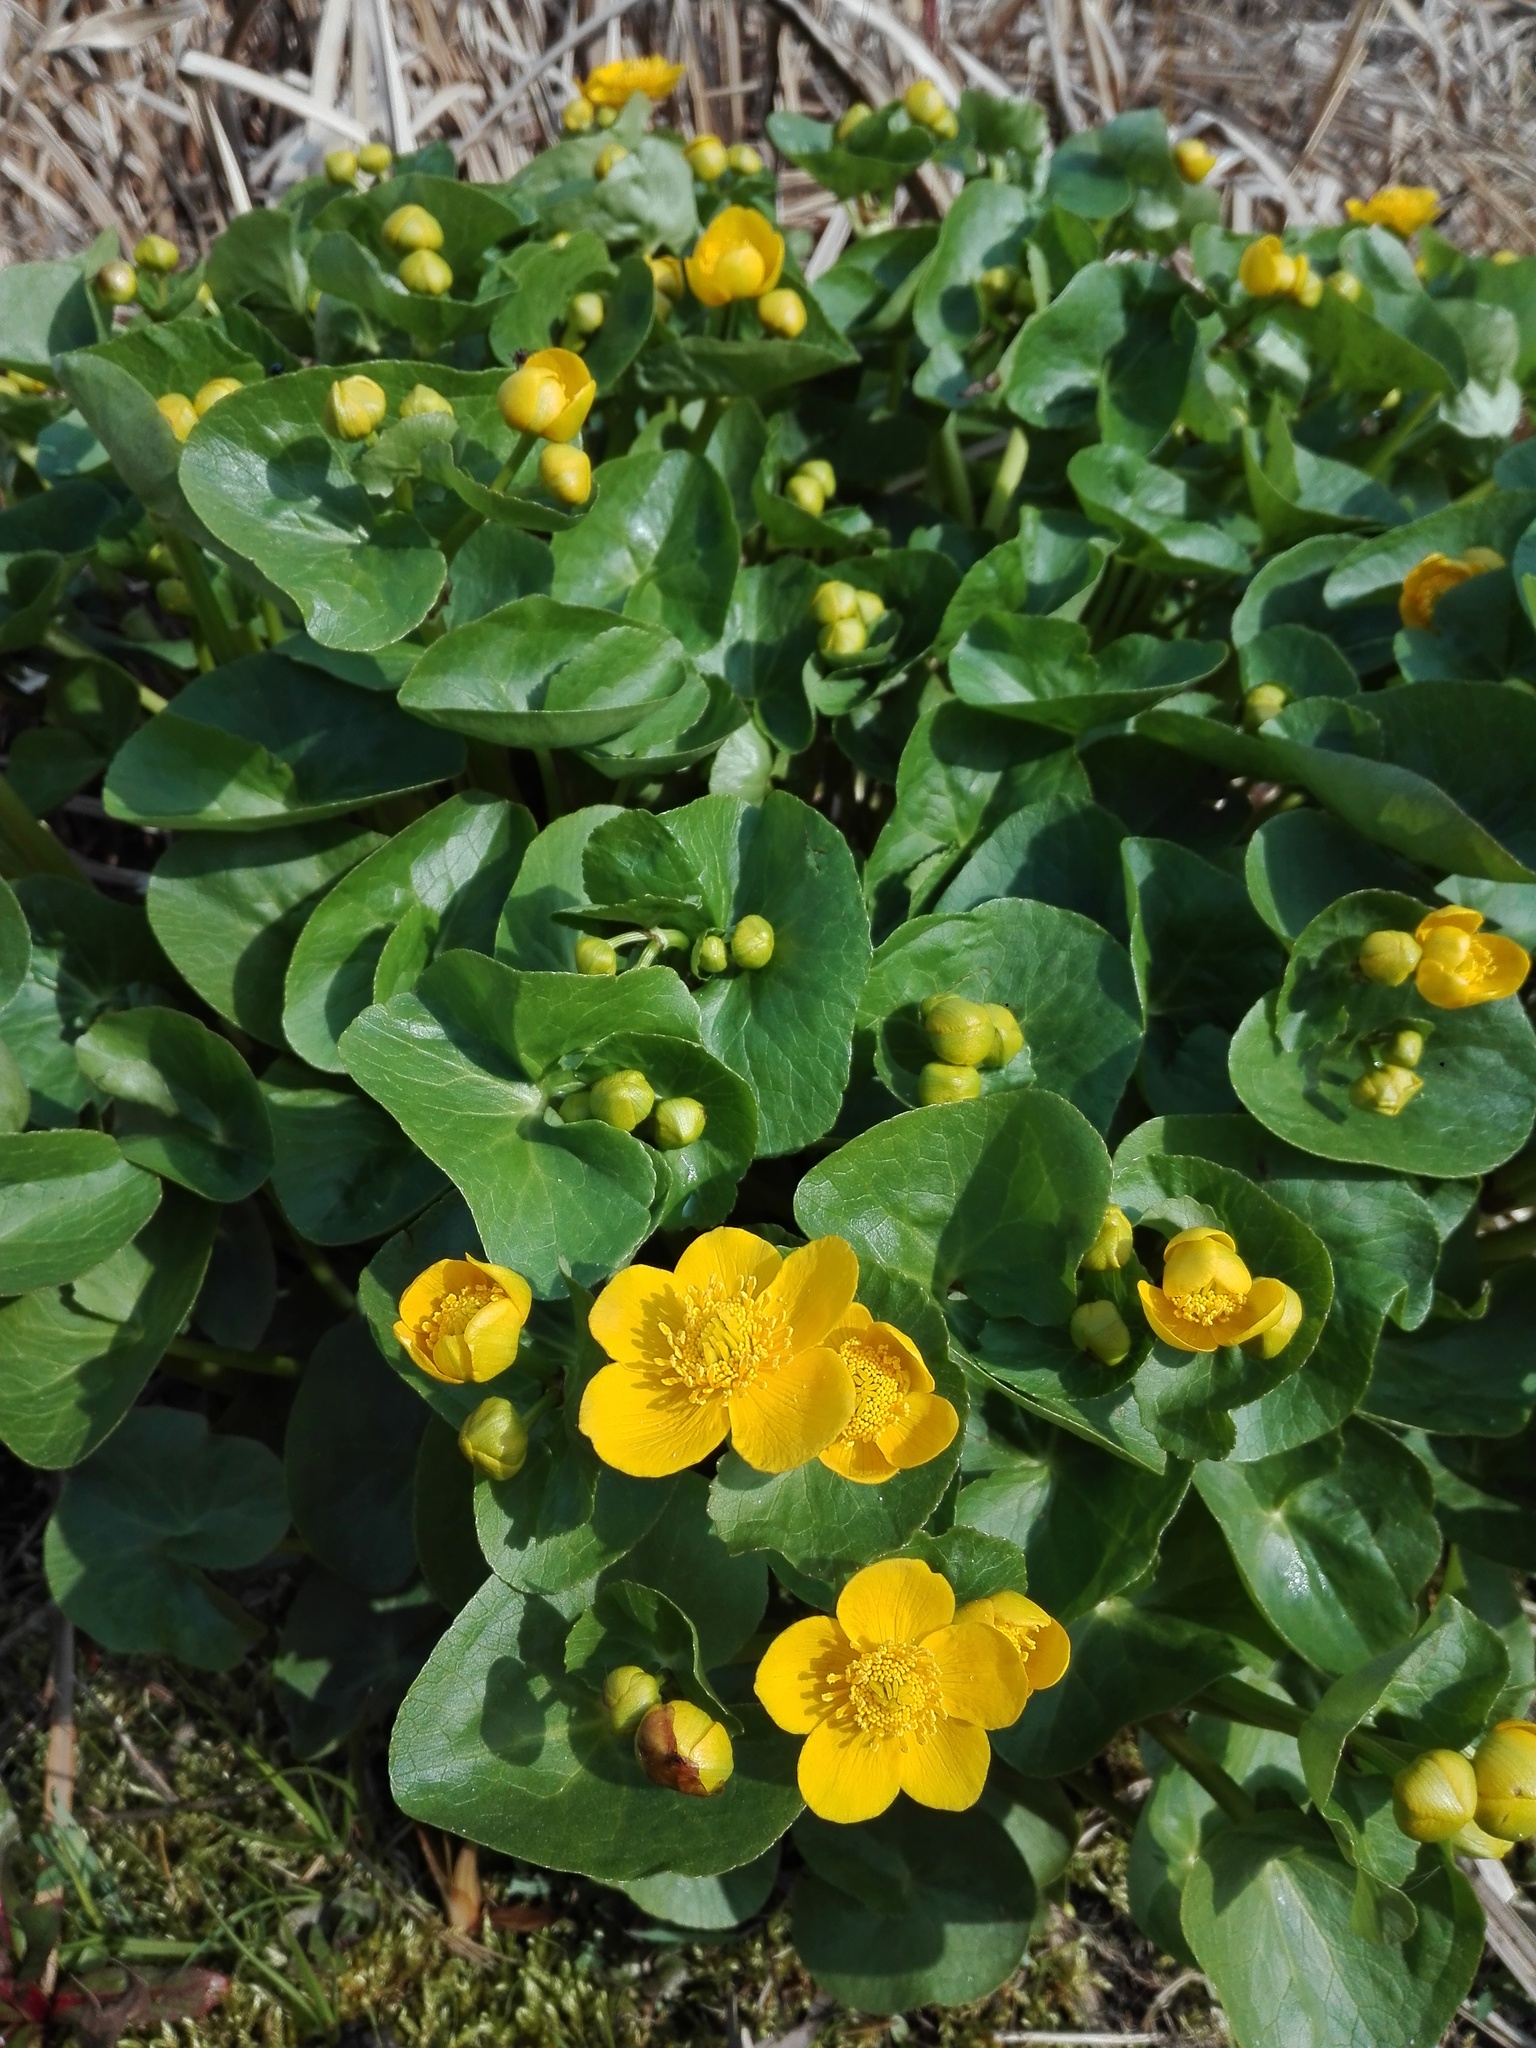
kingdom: Plantae
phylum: Tracheophyta
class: Magnoliopsida
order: Ranunculales
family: Ranunculaceae
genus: Caltha
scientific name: Caltha palustris
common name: Marsh marigold
